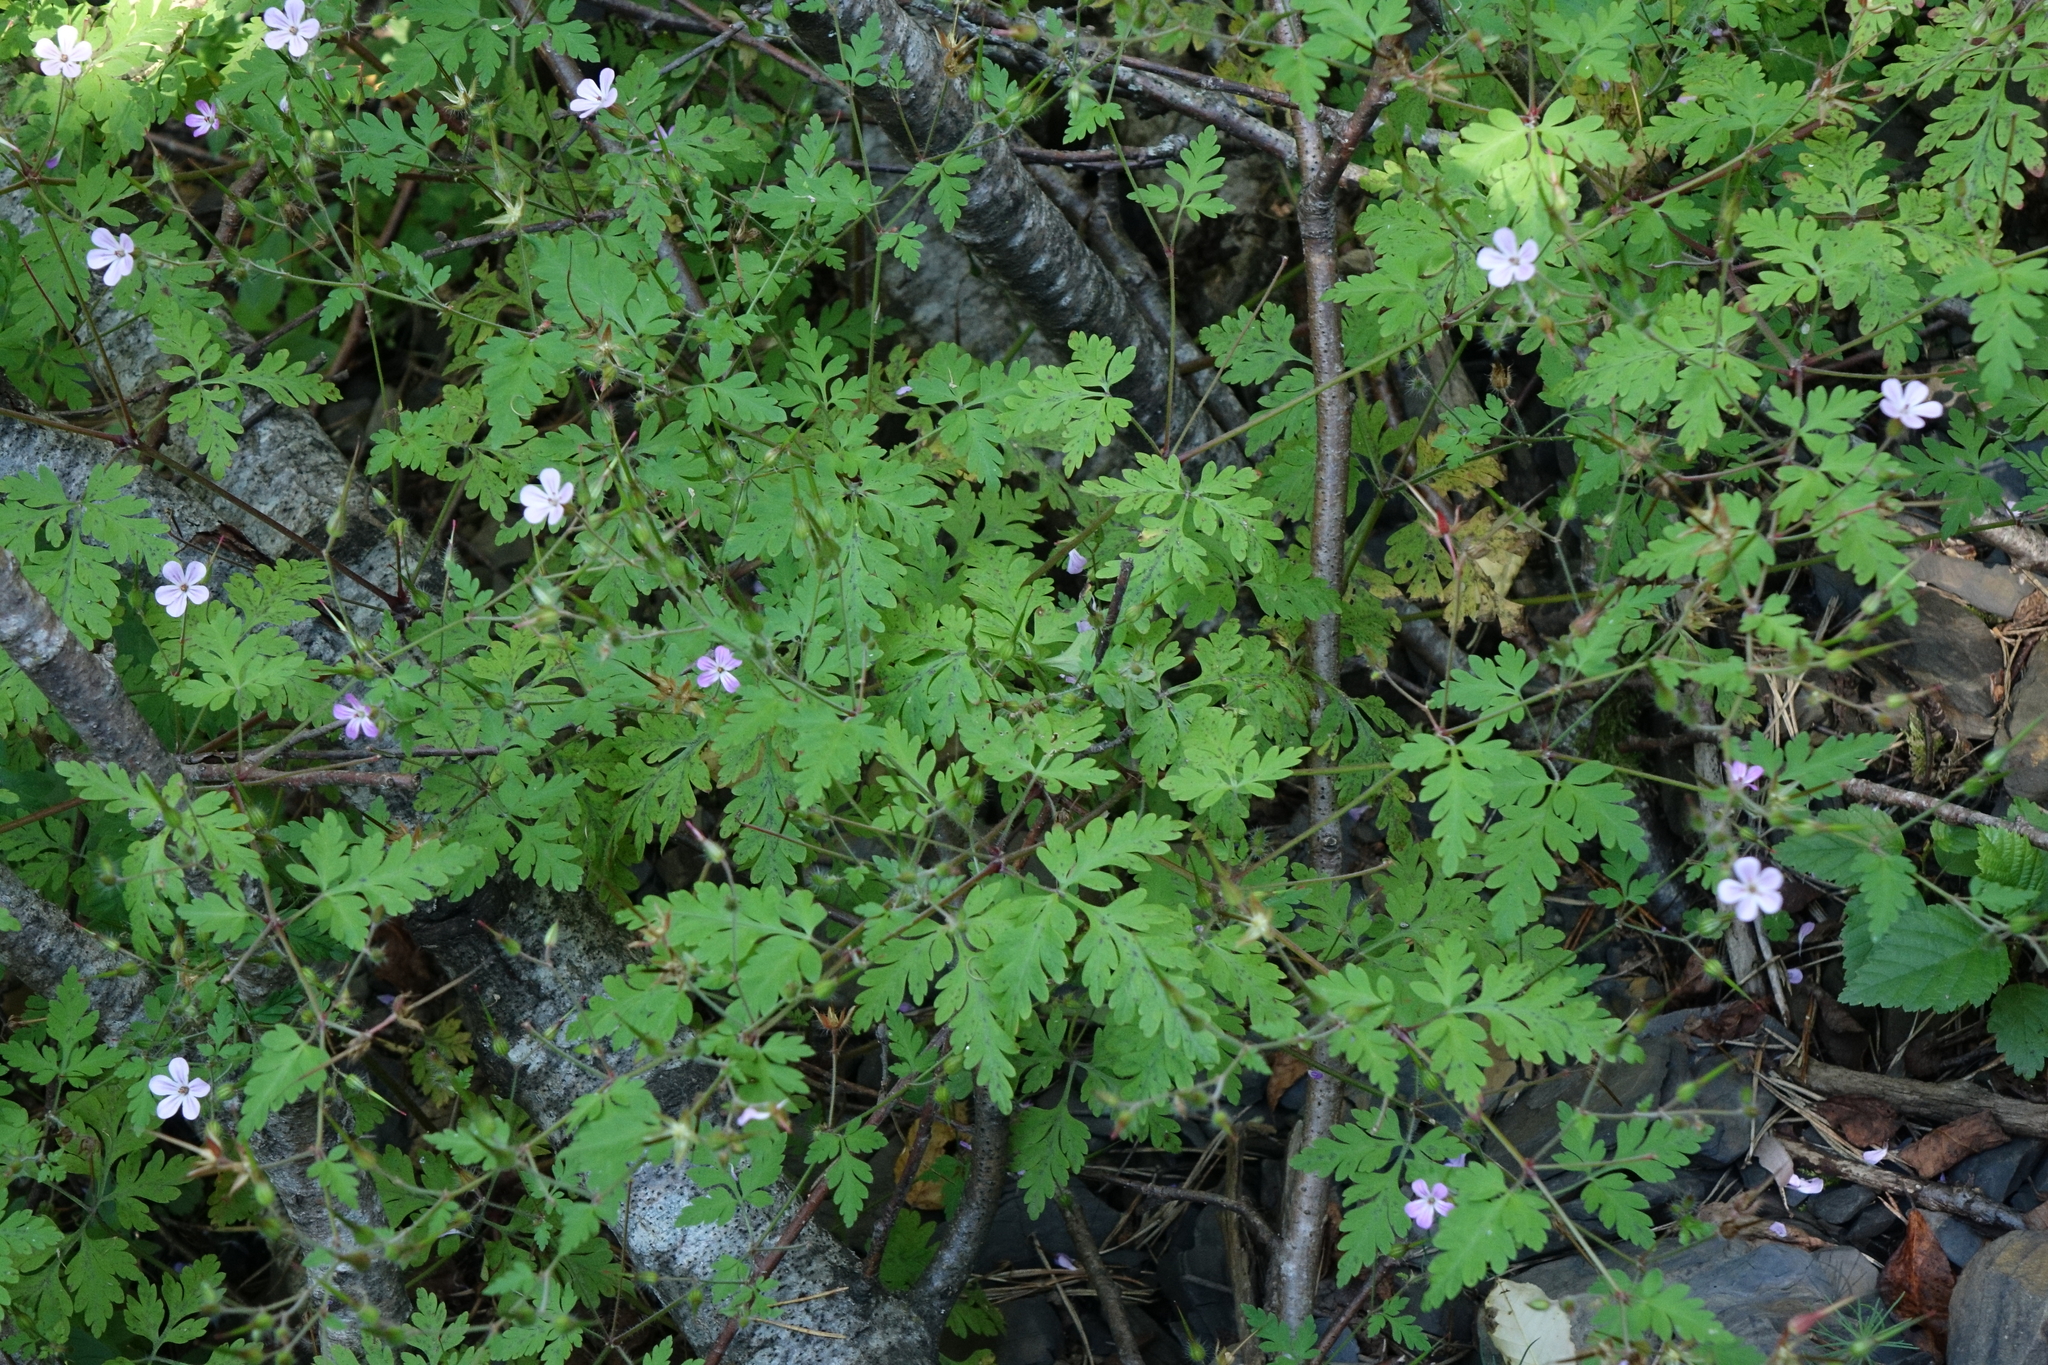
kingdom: Plantae
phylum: Tracheophyta
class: Magnoliopsida
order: Geraniales
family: Geraniaceae
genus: Geranium
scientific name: Geranium robertianum
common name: Herb-robert
